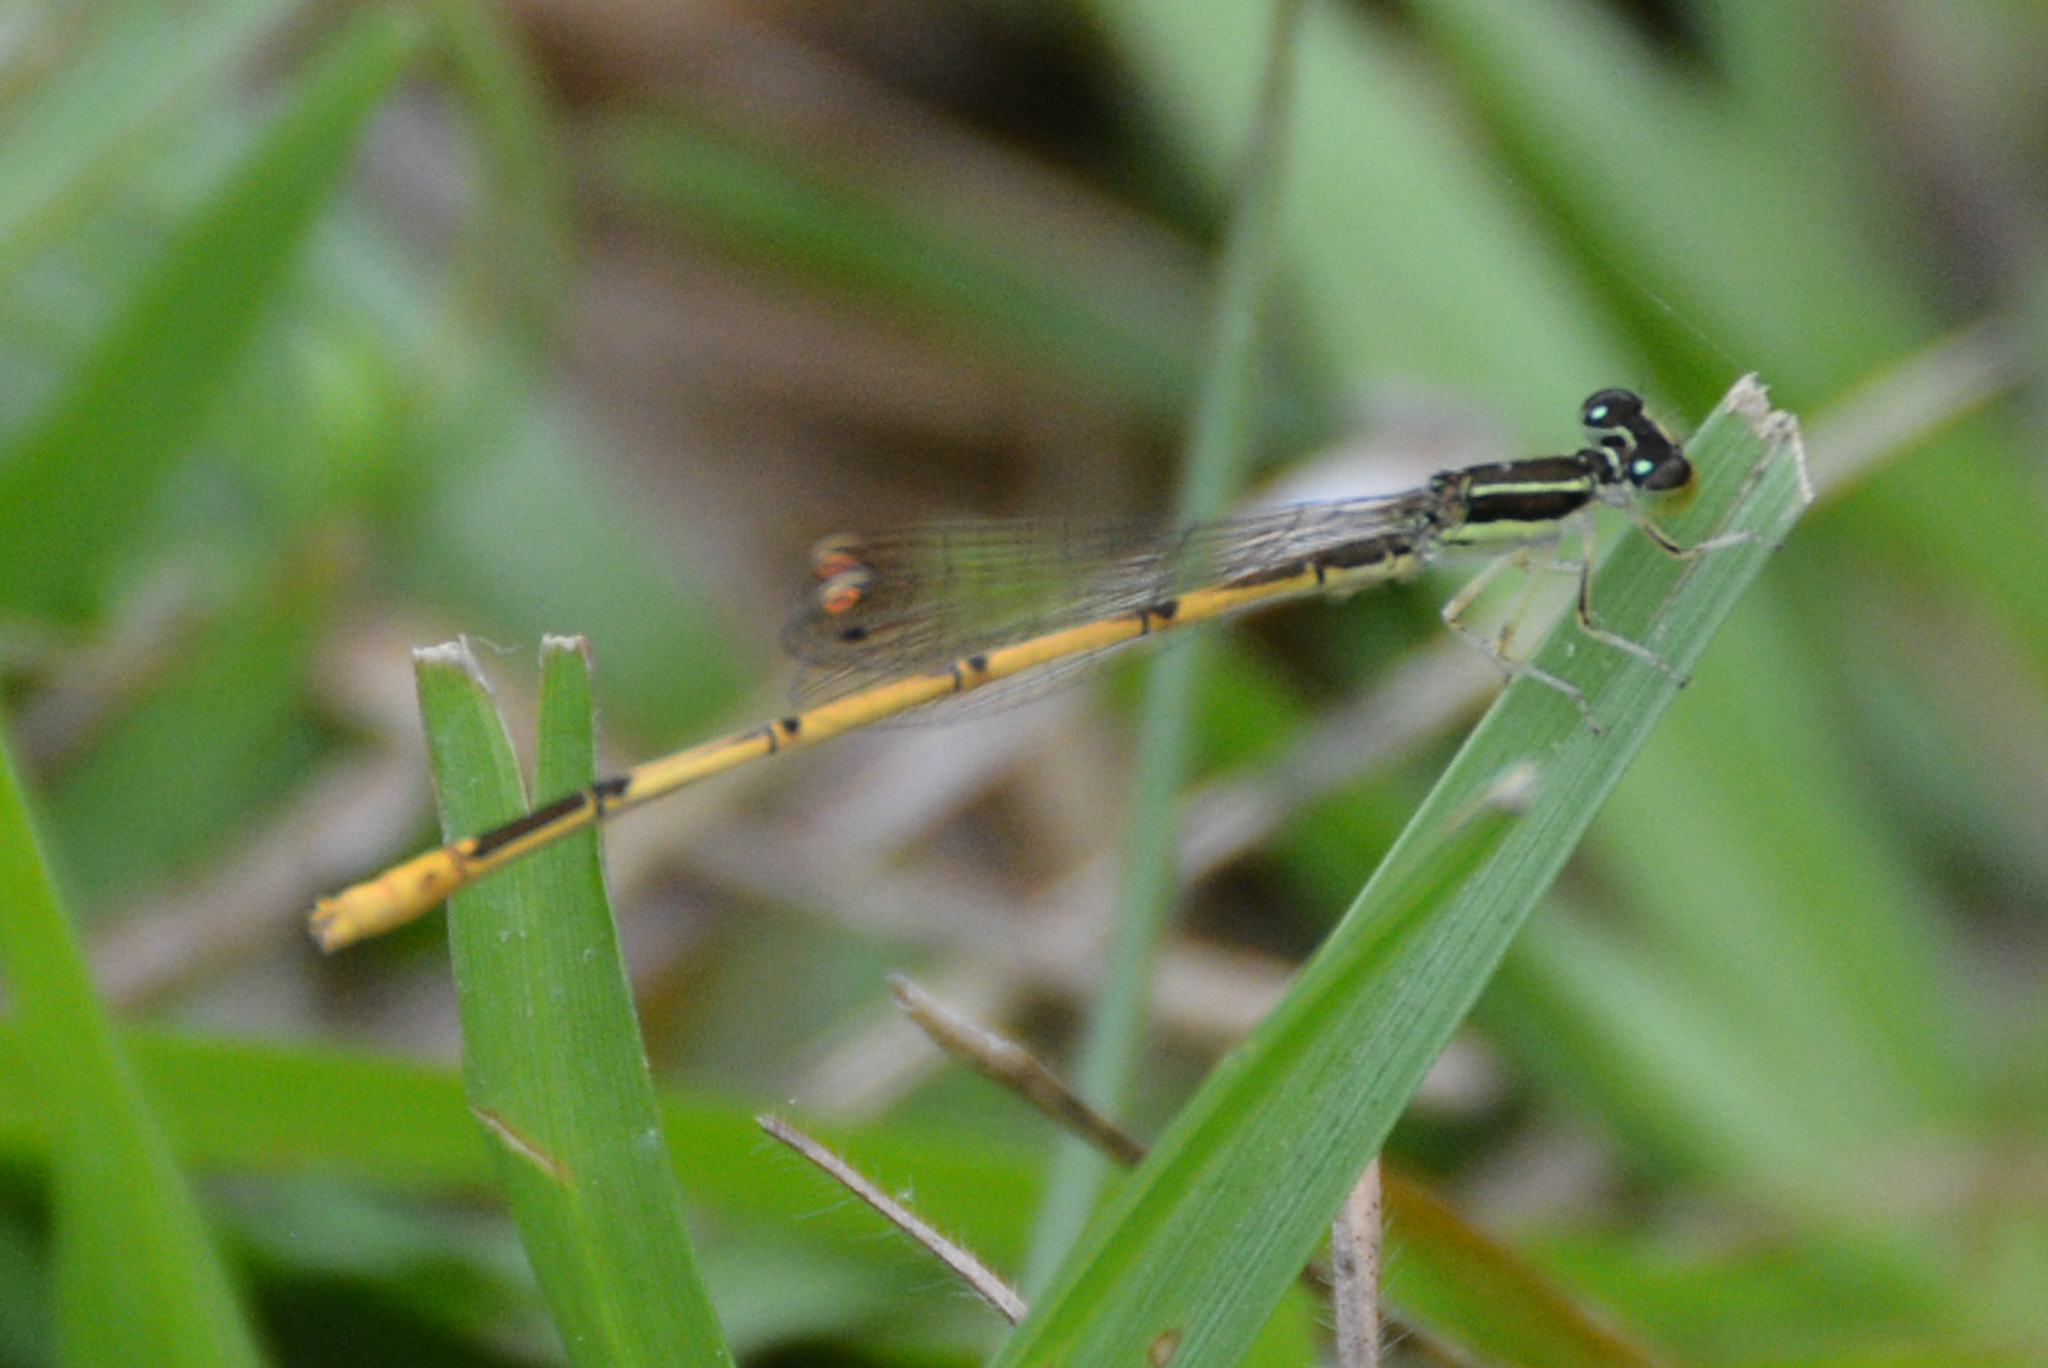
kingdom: Animalia
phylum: Arthropoda
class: Insecta
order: Odonata
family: Coenagrionidae
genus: Ischnura
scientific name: Ischnura hastata
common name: Citrine forktail
